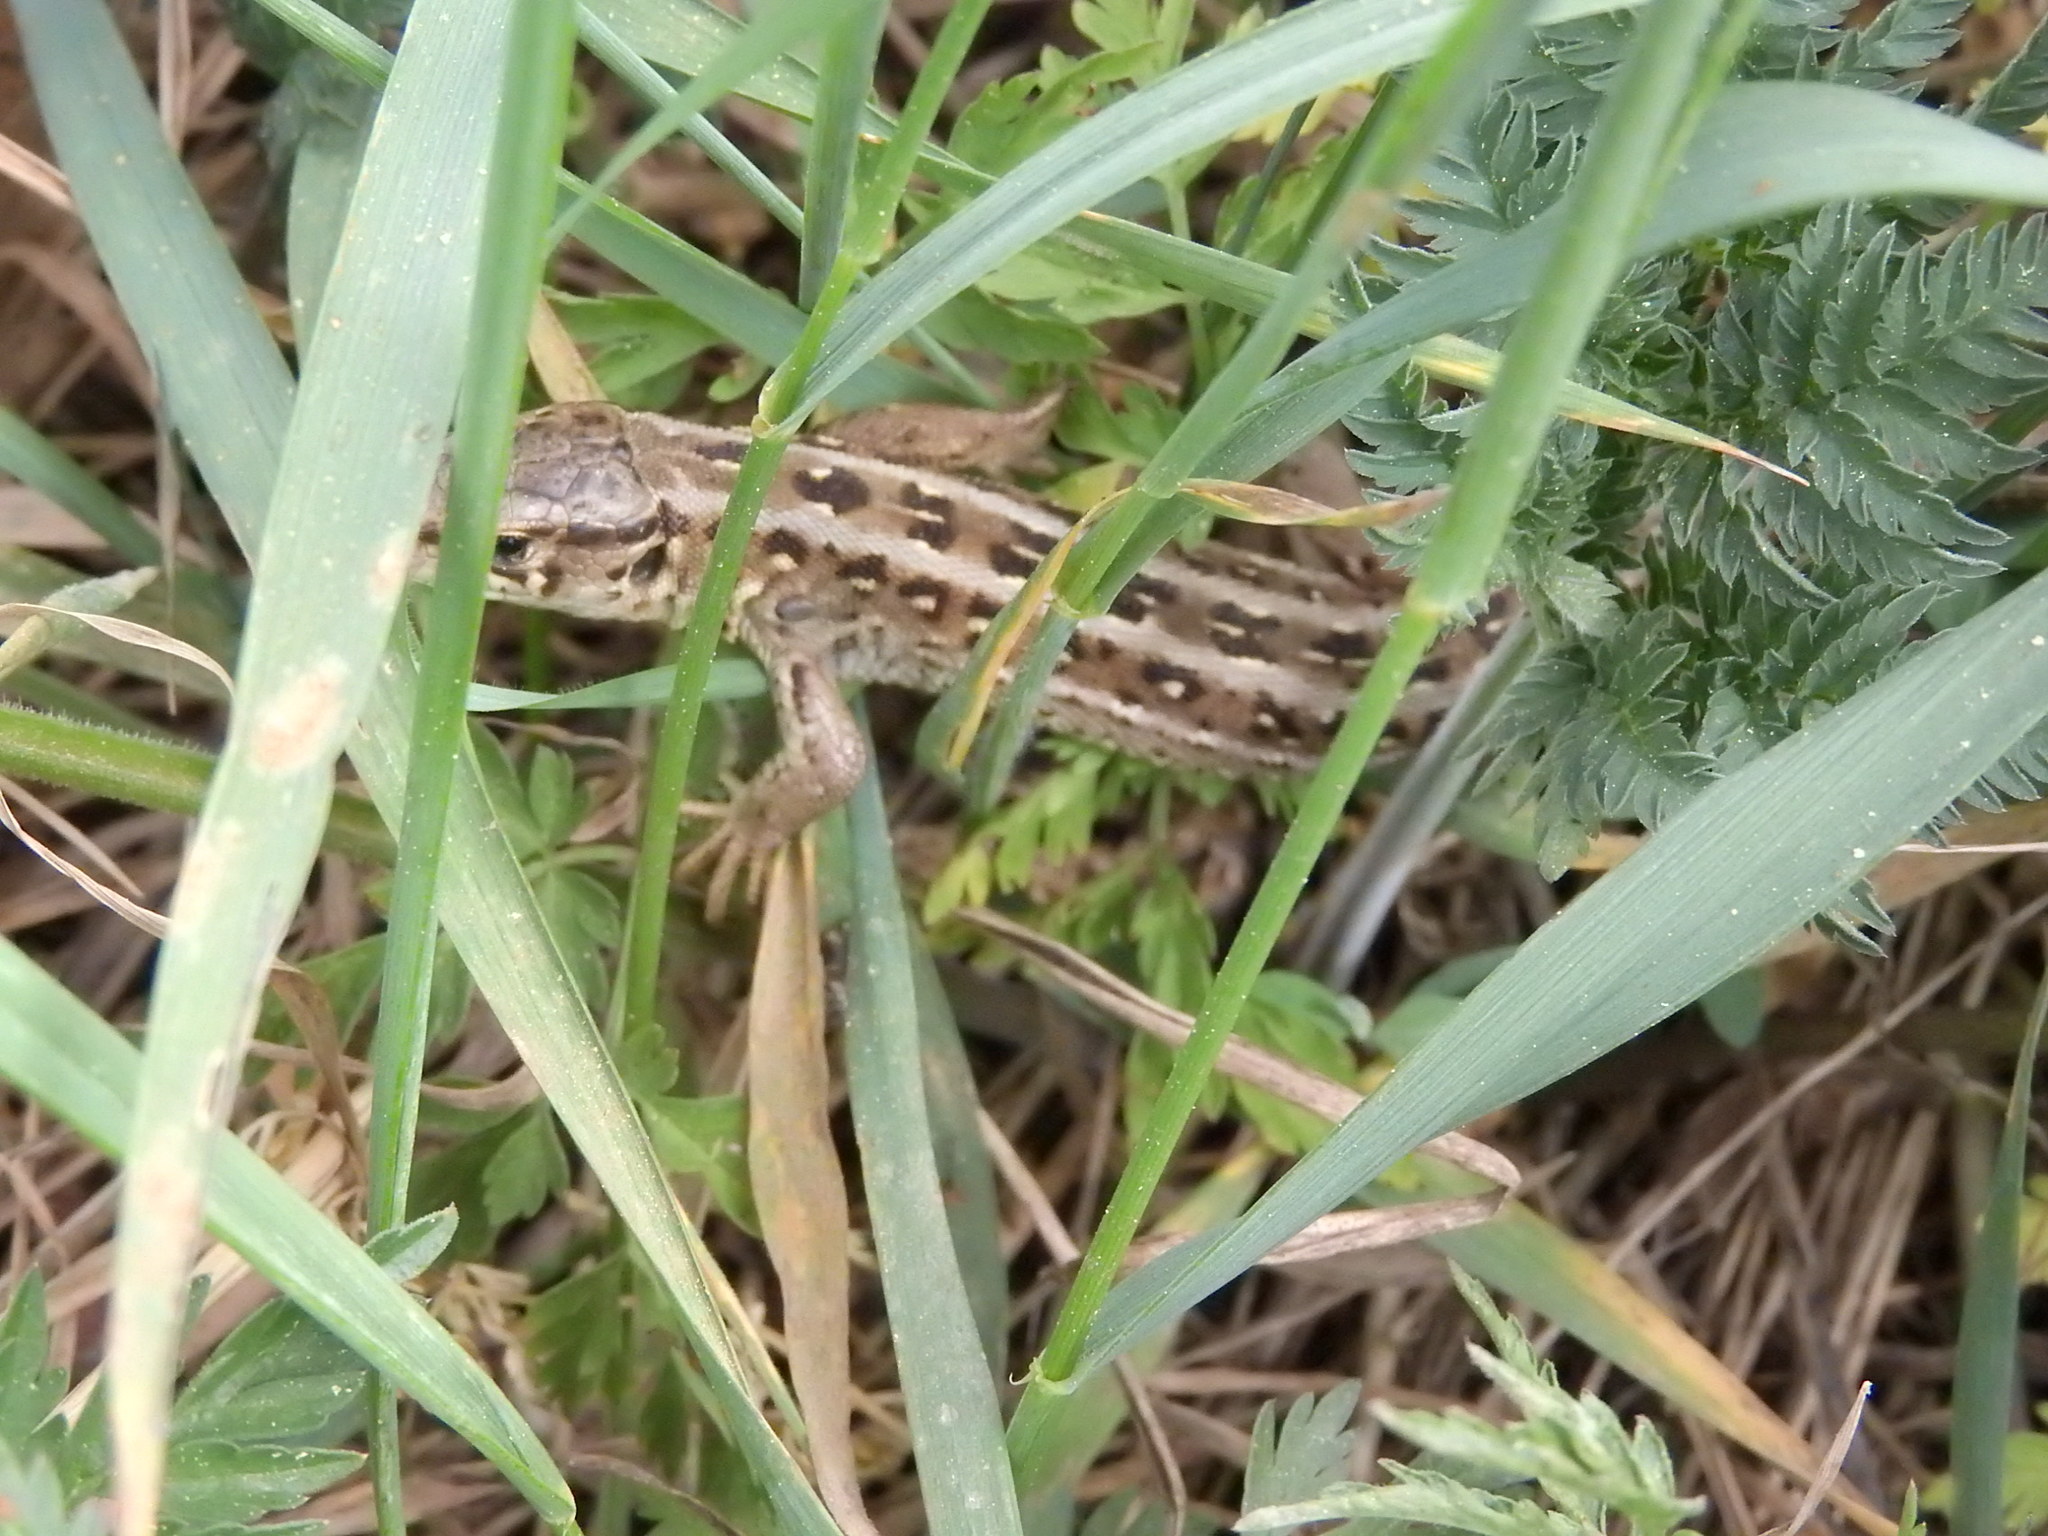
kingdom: Animalia
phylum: Chordata
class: Squamata
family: Lacertidae
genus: Lacerta
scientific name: Lacerta agilis
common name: Sand lizard
